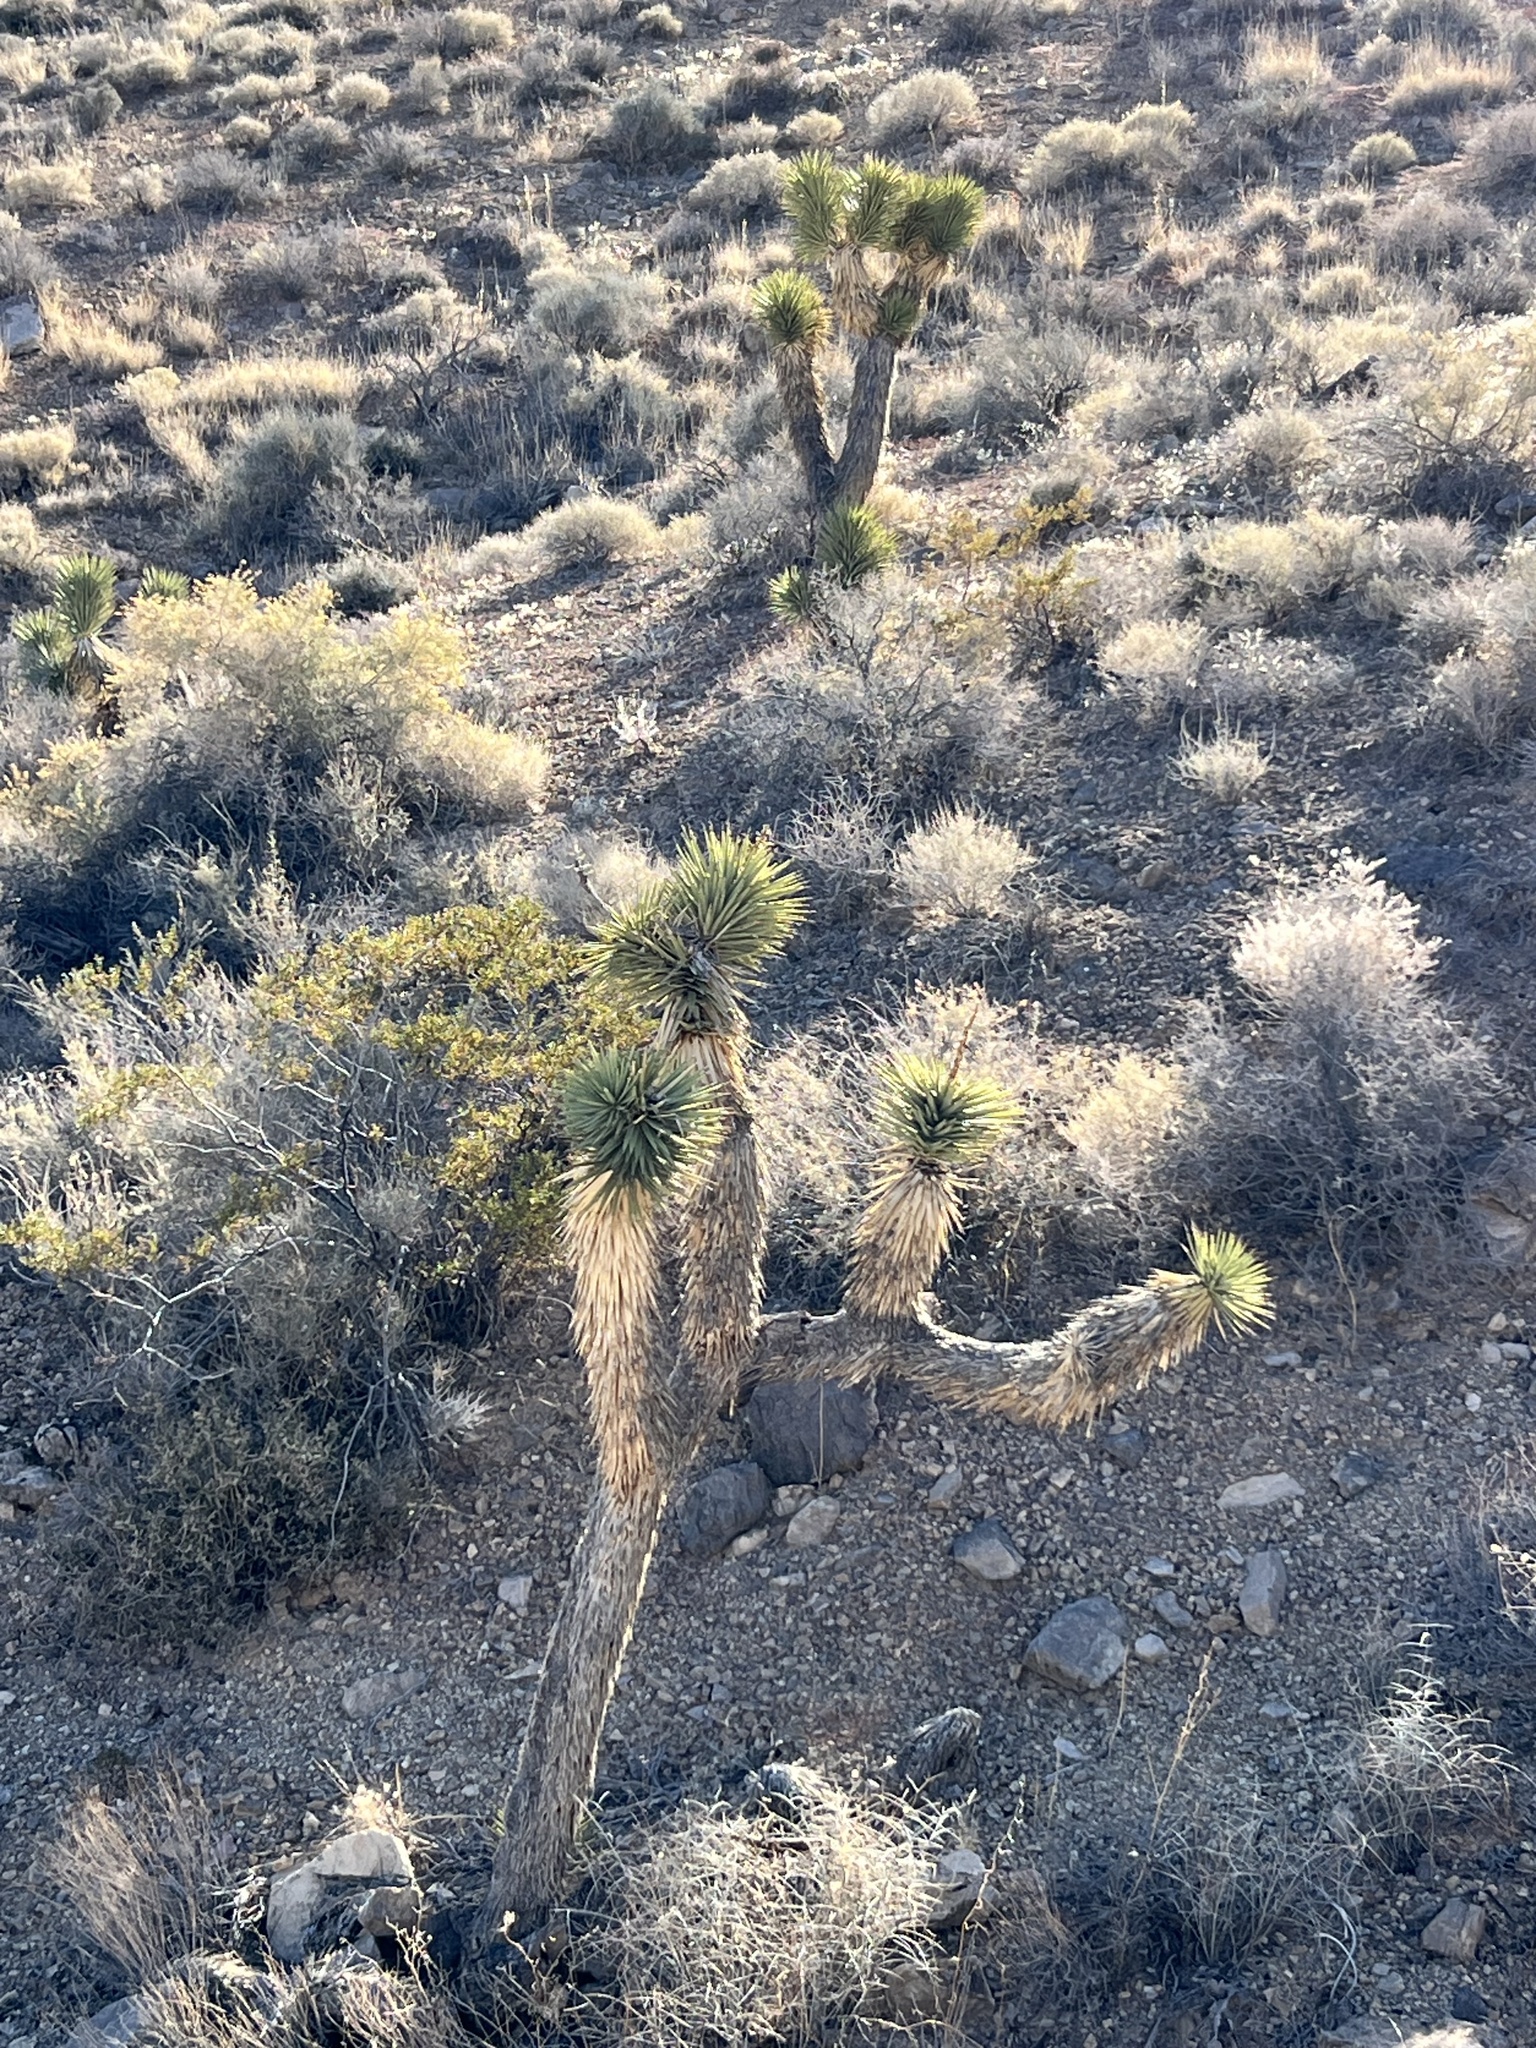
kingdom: Plantae
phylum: Tracheophyta
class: Liliopsida
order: Asparagales
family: Asparagaceae
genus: Yucca
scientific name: Yucca brevifolia
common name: Joshua tree
